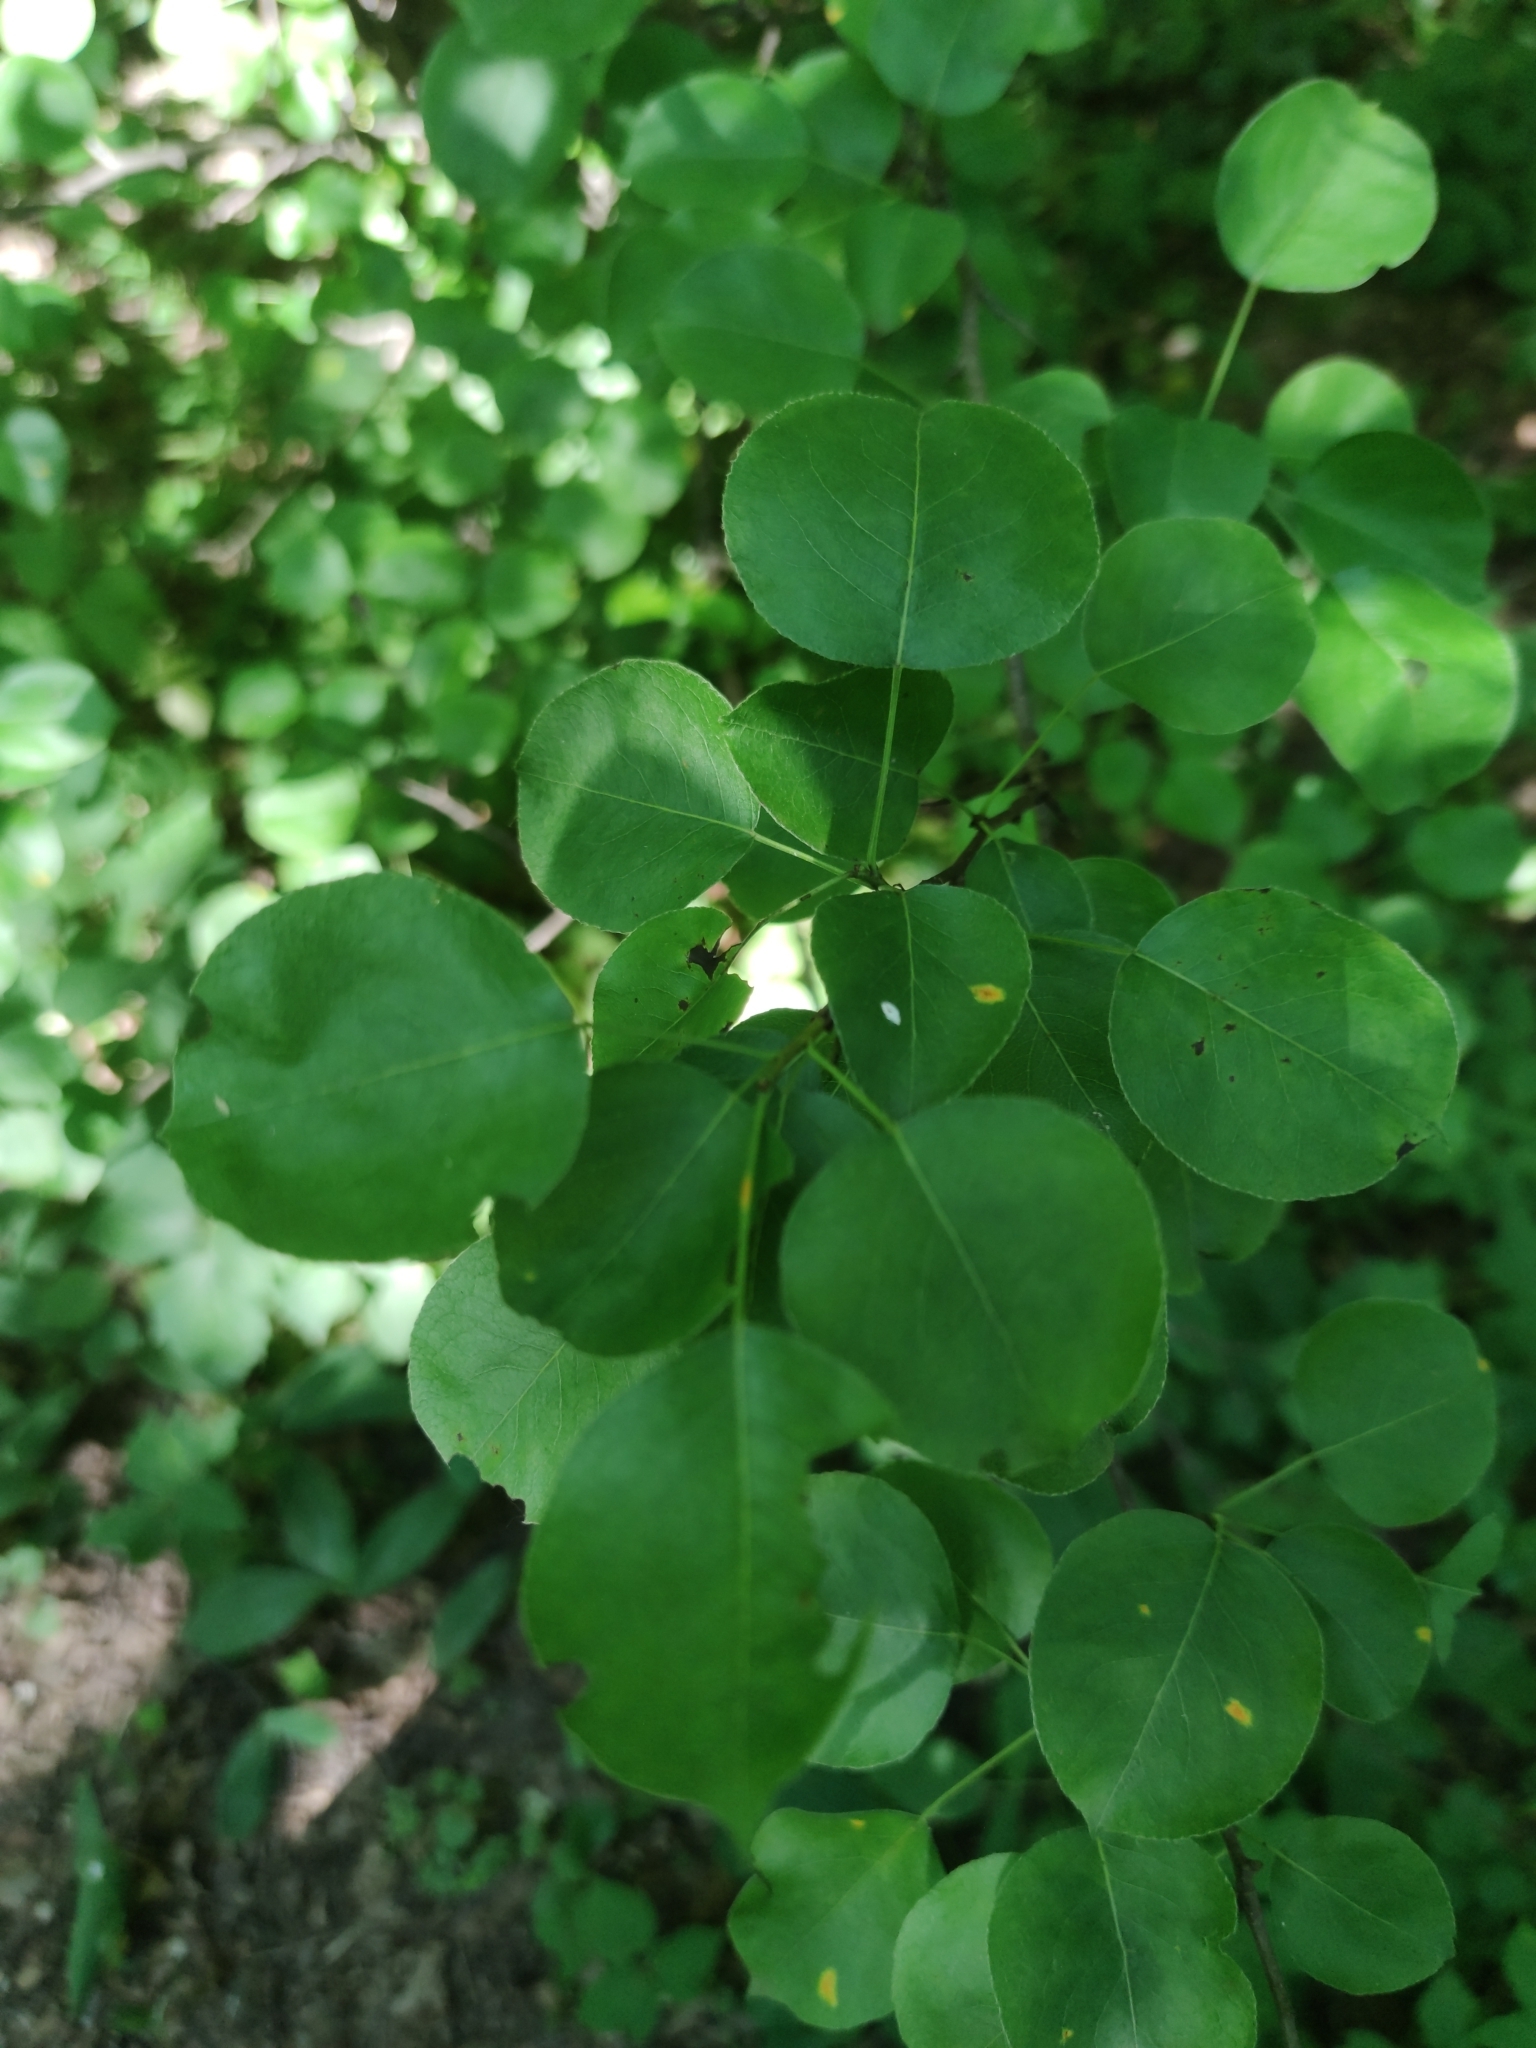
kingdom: Plantae
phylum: Tracheophyta
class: Magnoliopsida
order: Rosales
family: Rosaceae
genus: Pyrus
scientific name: Pyrus communis
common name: Pear
